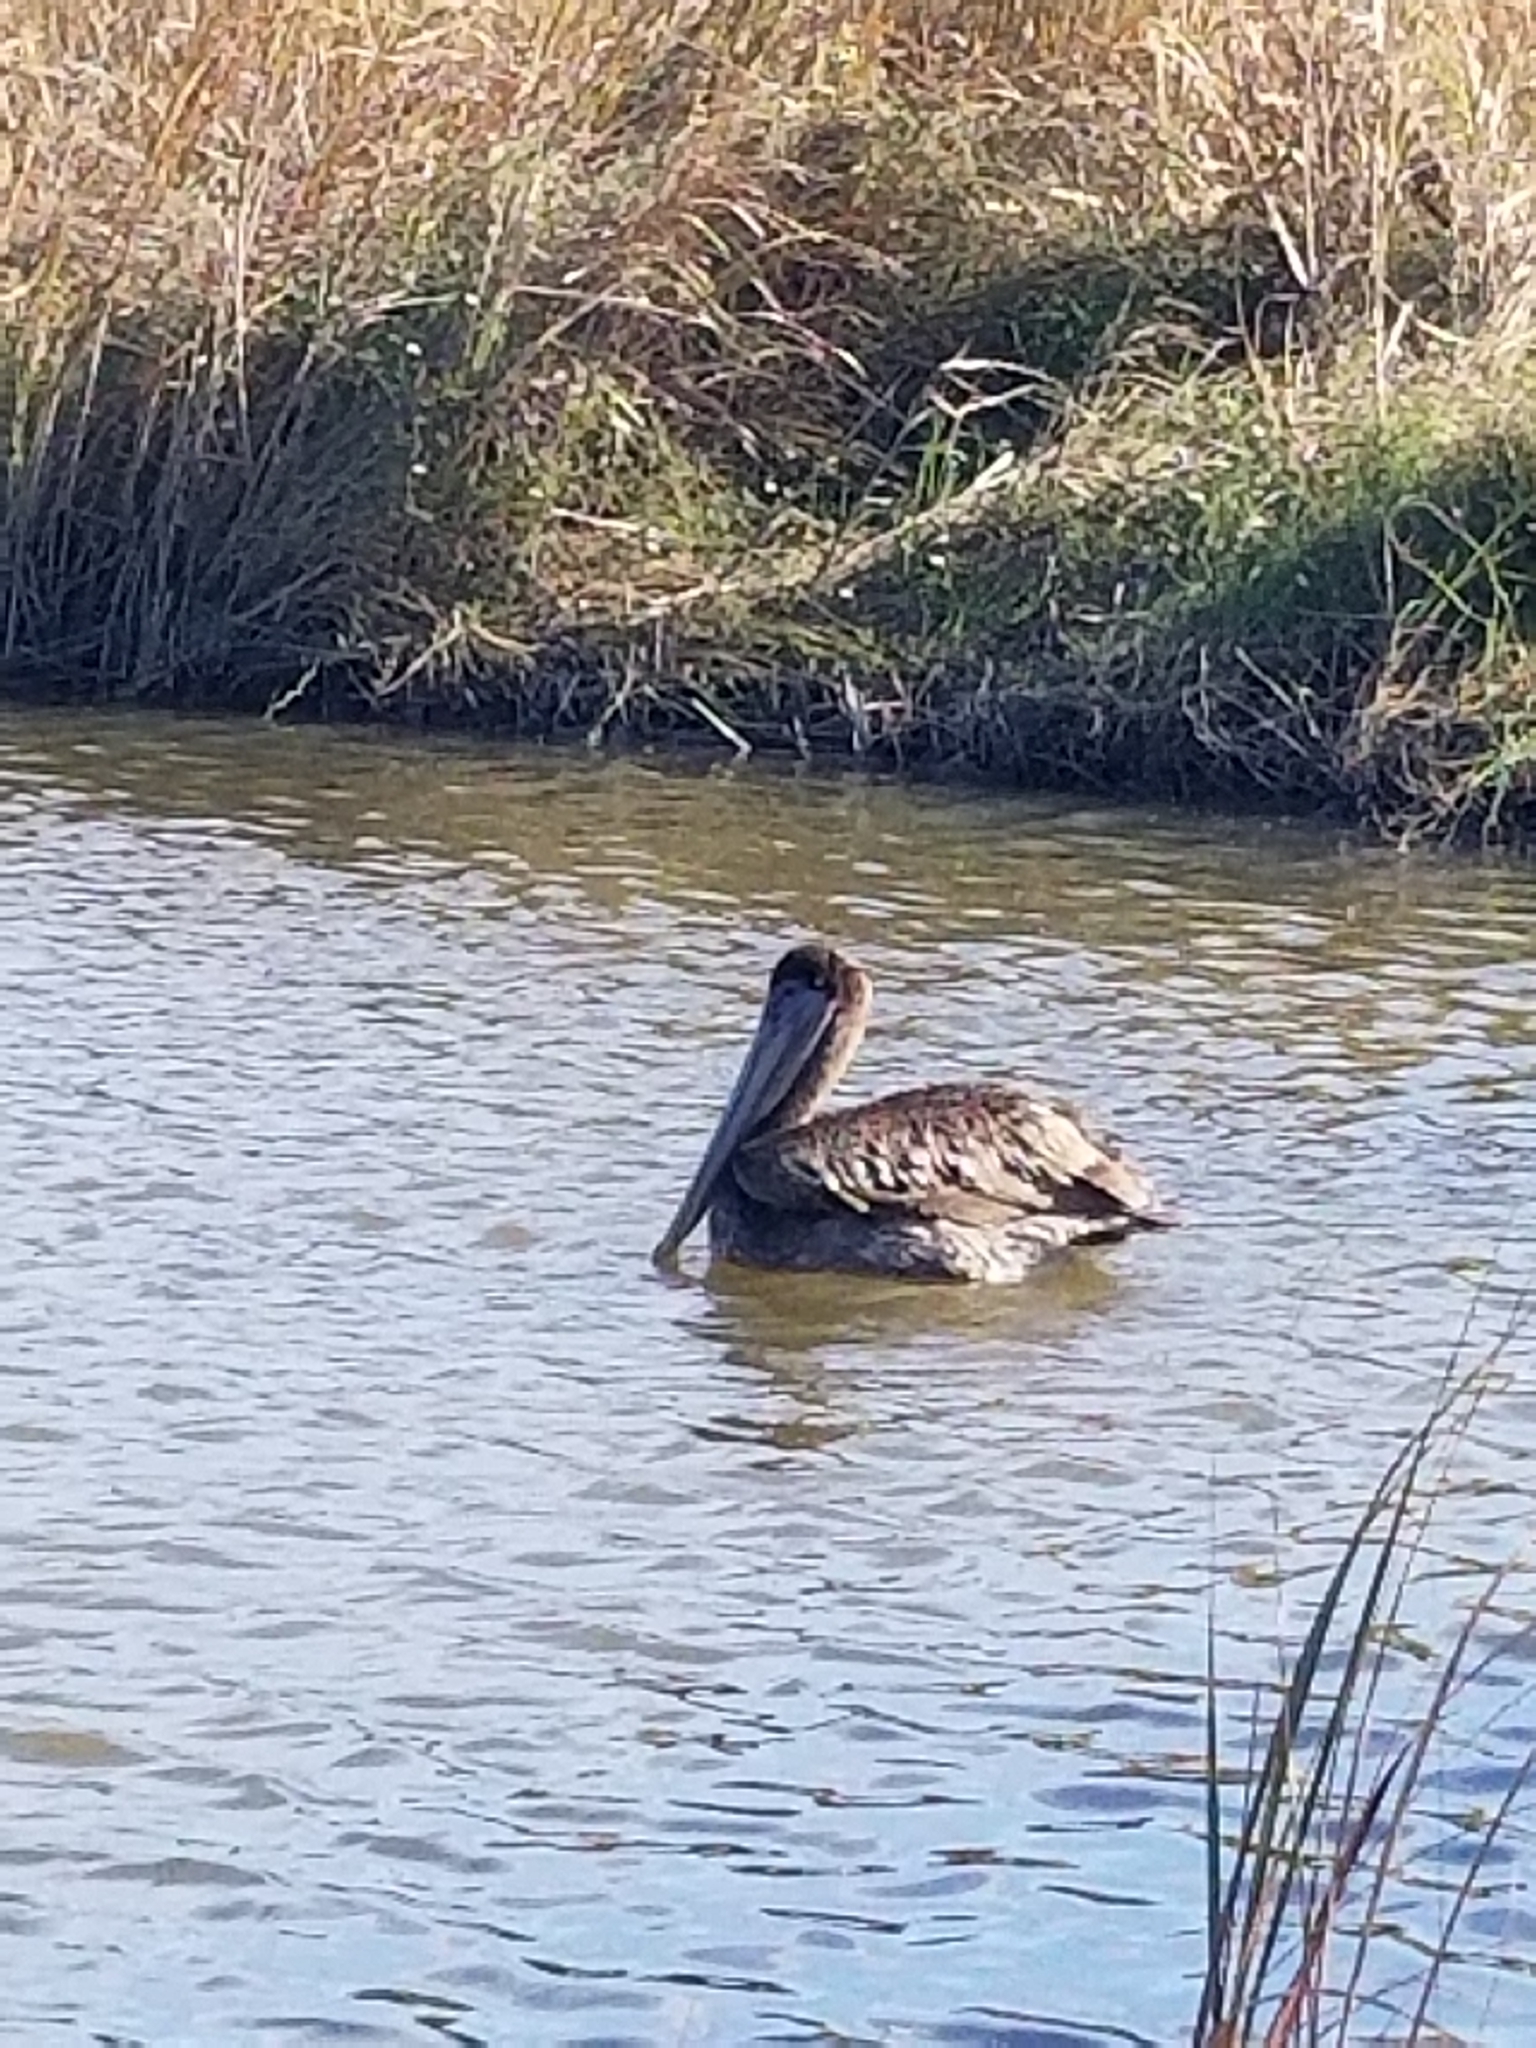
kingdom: Animalia
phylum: Chordata
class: Aves
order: Pelecaniformes
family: Pelecanidae
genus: Pelecanus
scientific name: Pelecanus occidentalis
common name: Brown pelican
